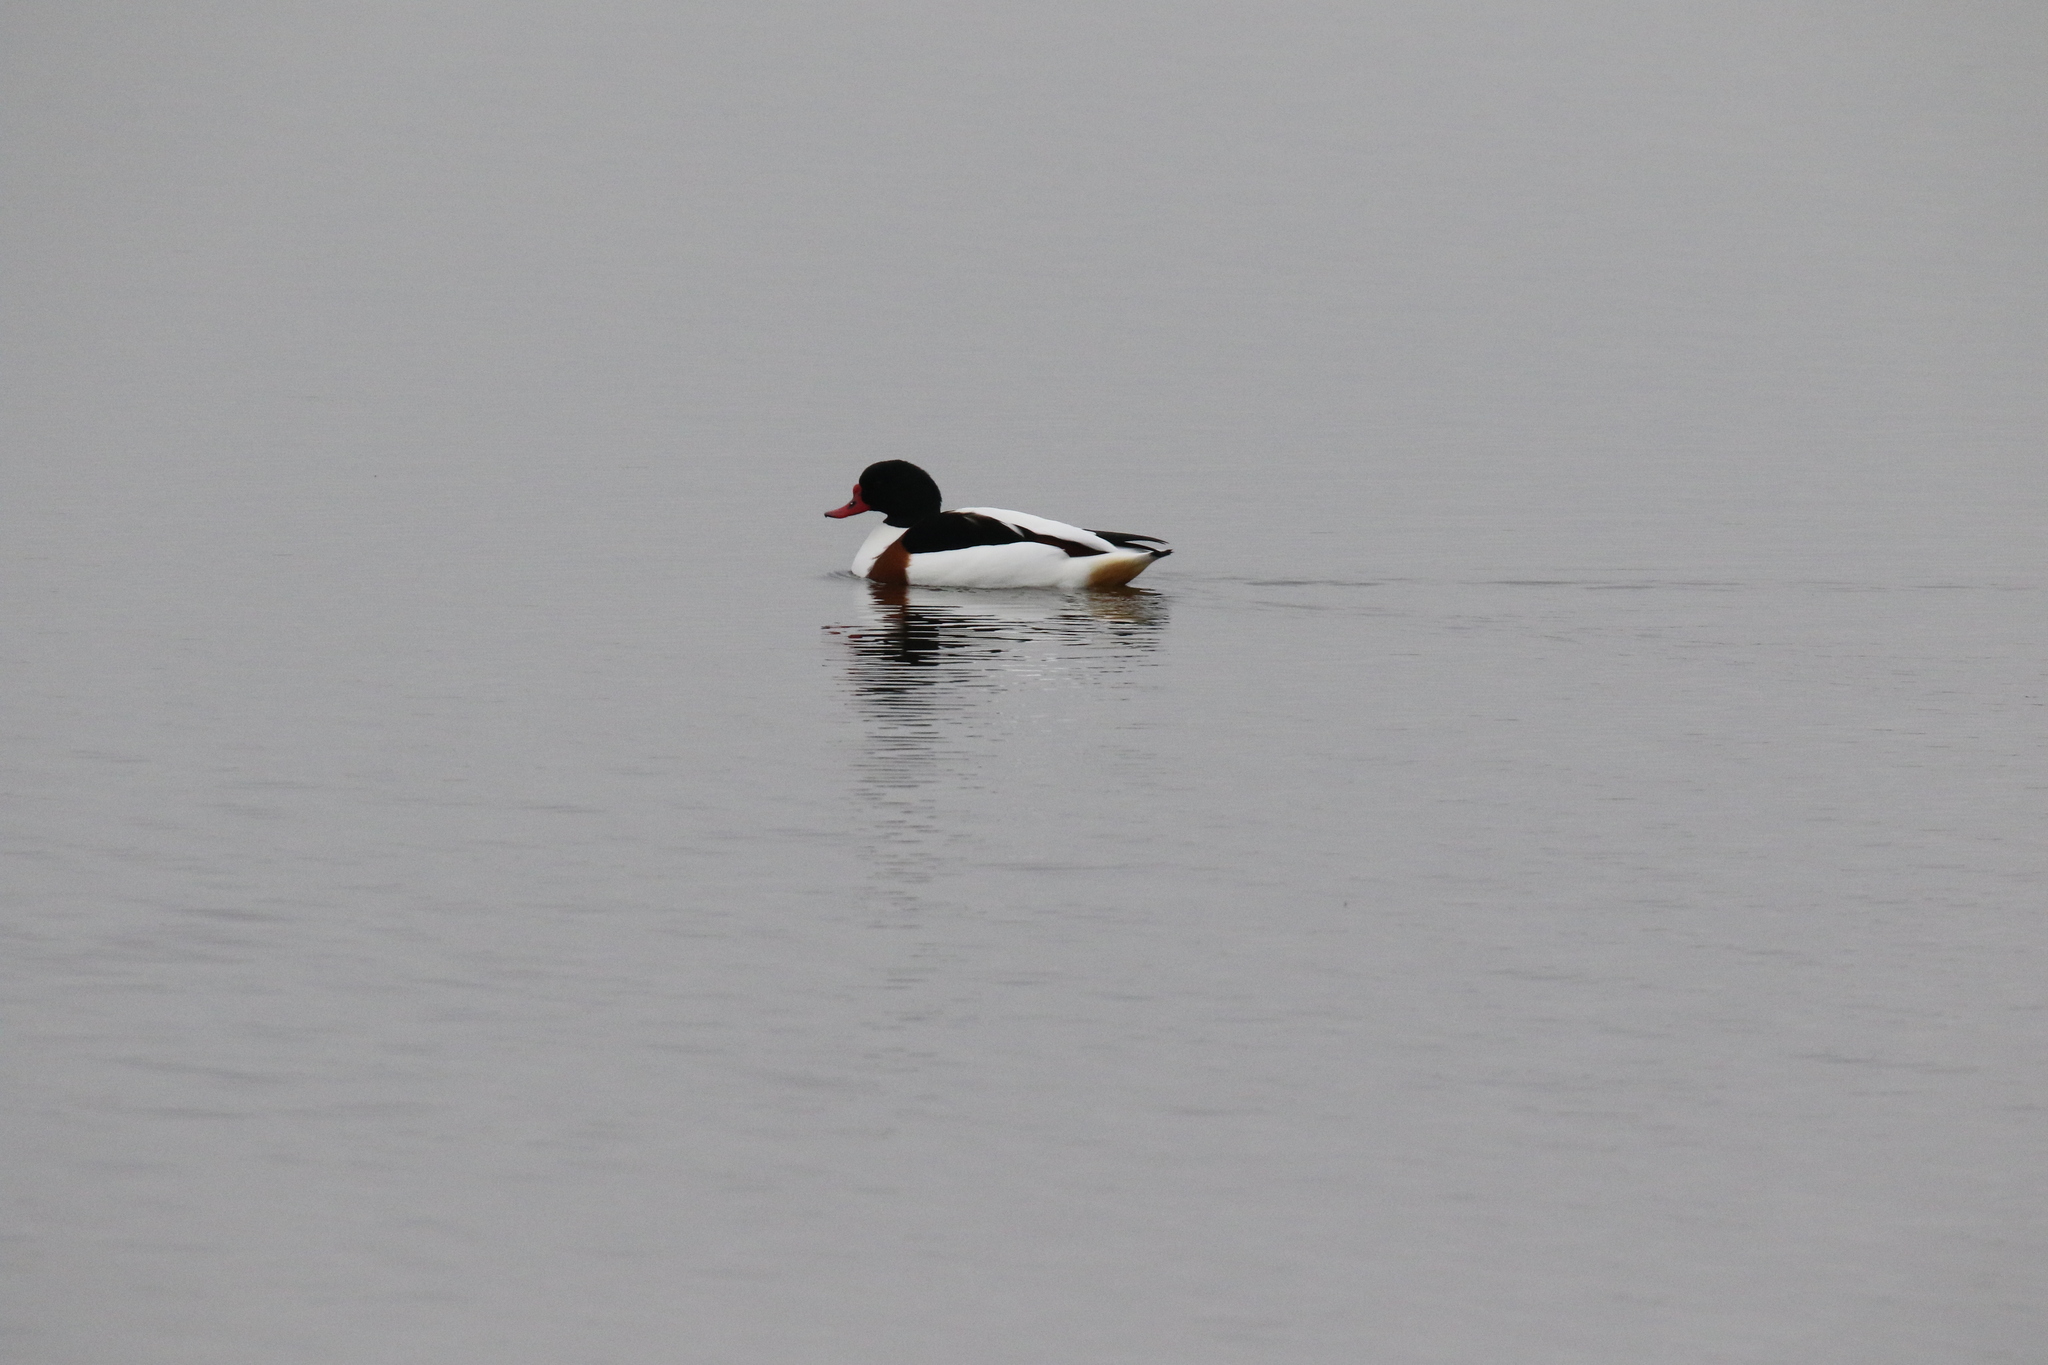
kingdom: Animalia
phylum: Chordata
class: Aves
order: Anseriformes
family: Anatidae
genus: Tadorna
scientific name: Tadorna tadorna
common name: Common shelduck
